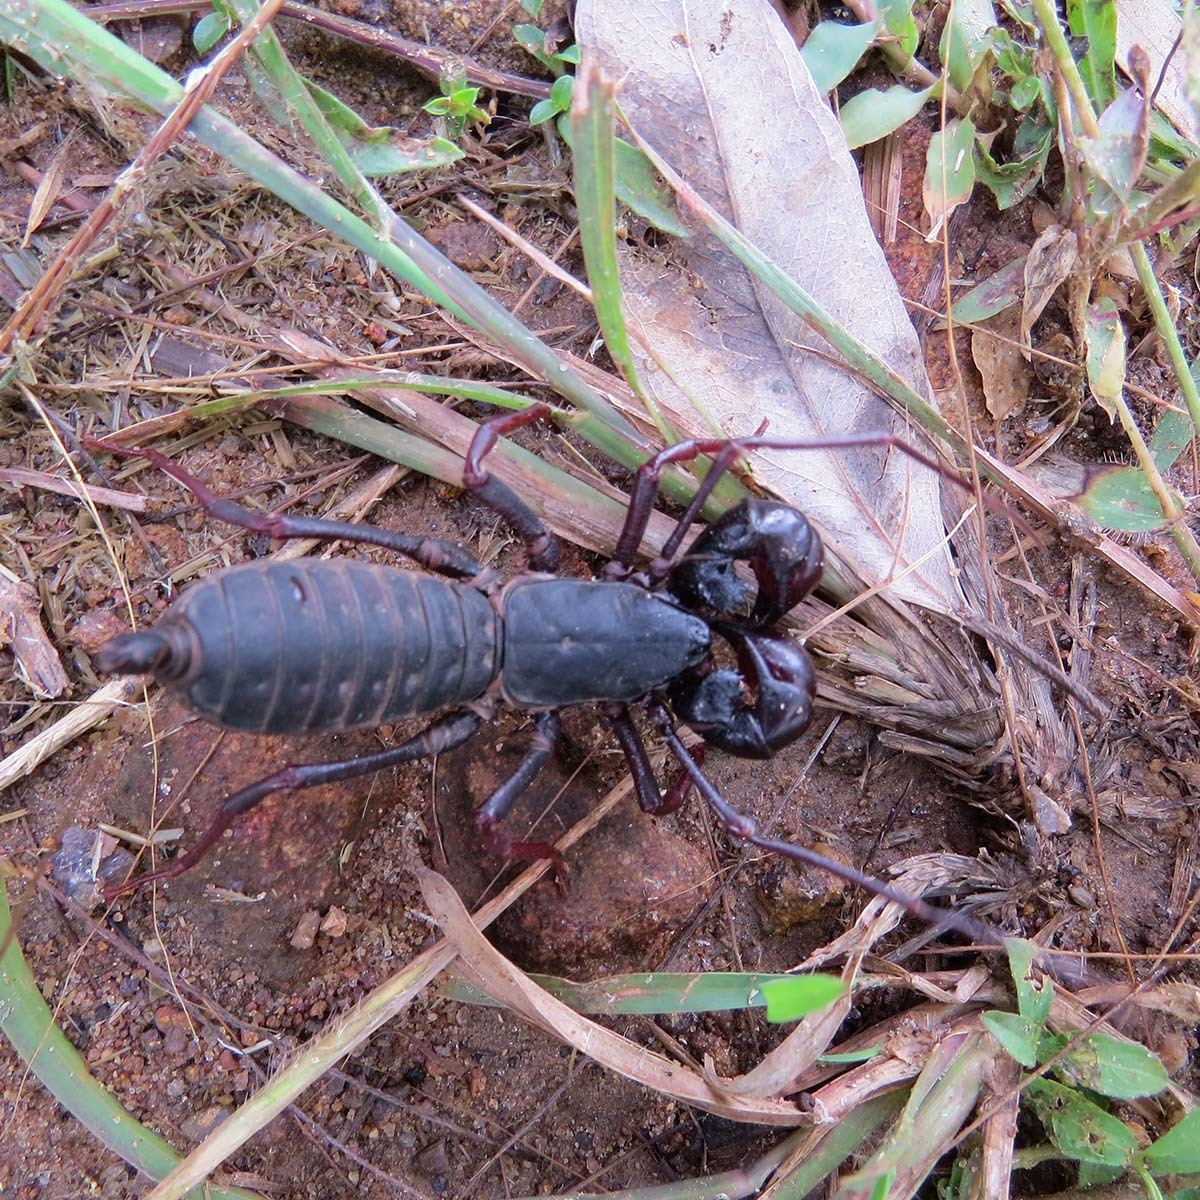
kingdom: Animalia
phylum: Arthropoda
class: Arachnida
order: Uropygi
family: Thelyphonidae
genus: Thelyphonus
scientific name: Thelyphonus sepiaris
